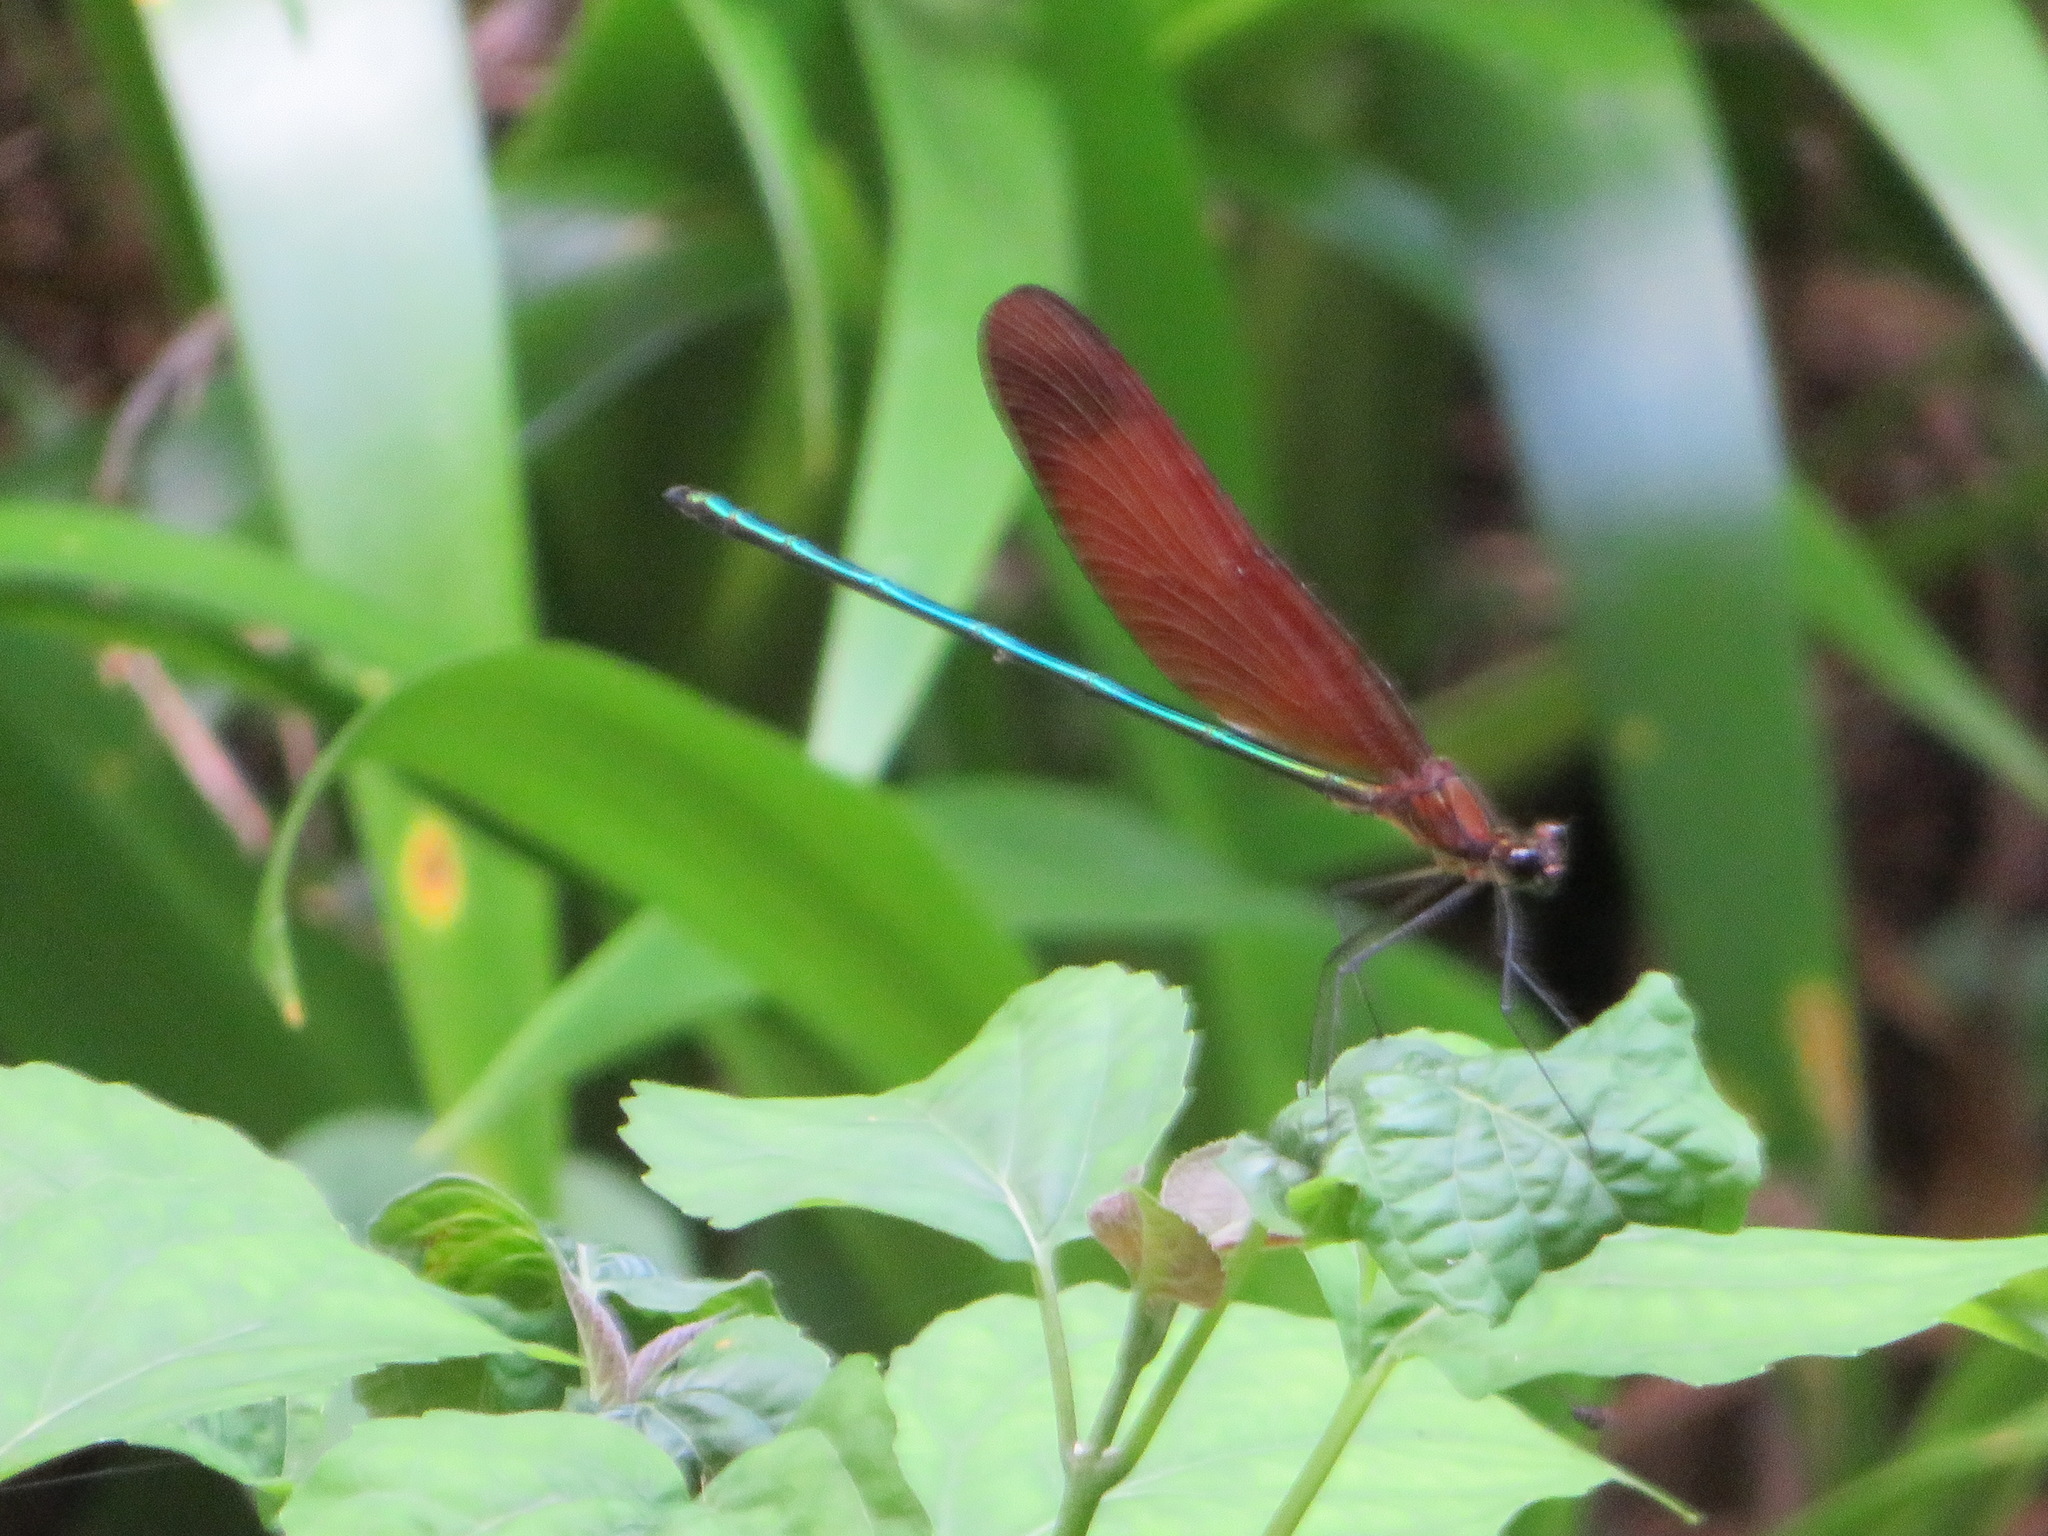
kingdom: Animalia
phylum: Arthropoda
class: Insecta
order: Odonata
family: Calopterygidae
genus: Calopteryx
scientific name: Calopteryx cornelia
